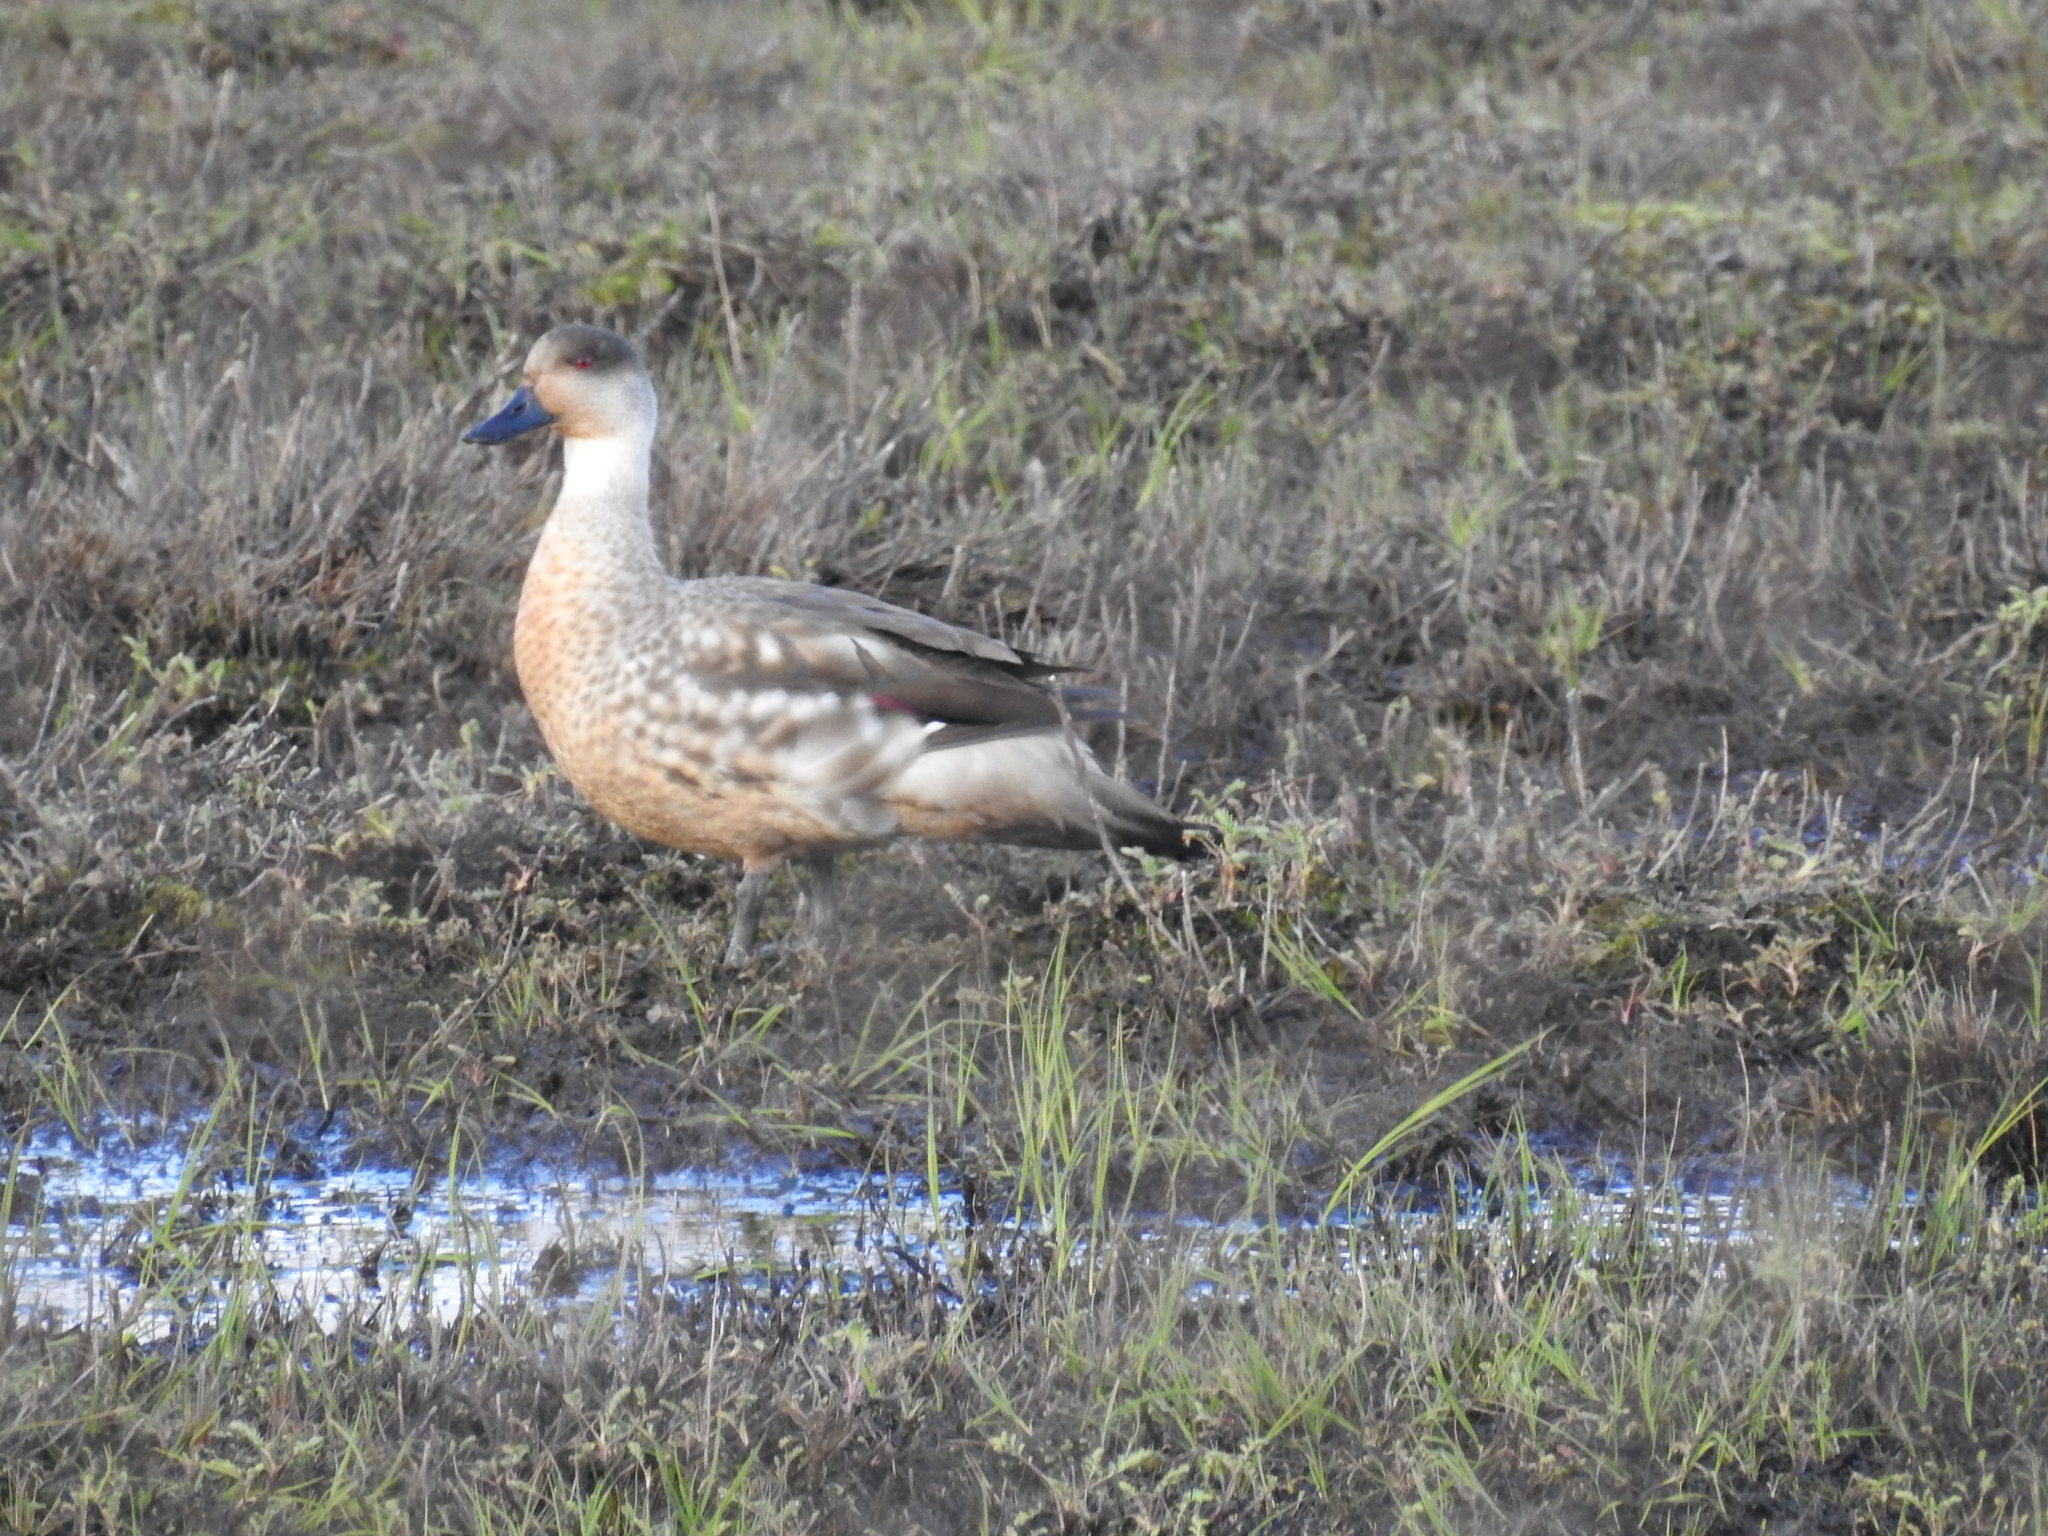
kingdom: Animalia
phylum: Chordata
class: Aves
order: Anseriformes
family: Anatidae
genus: Lophonetta
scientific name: Lophonetta specularioides
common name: Crested duck
